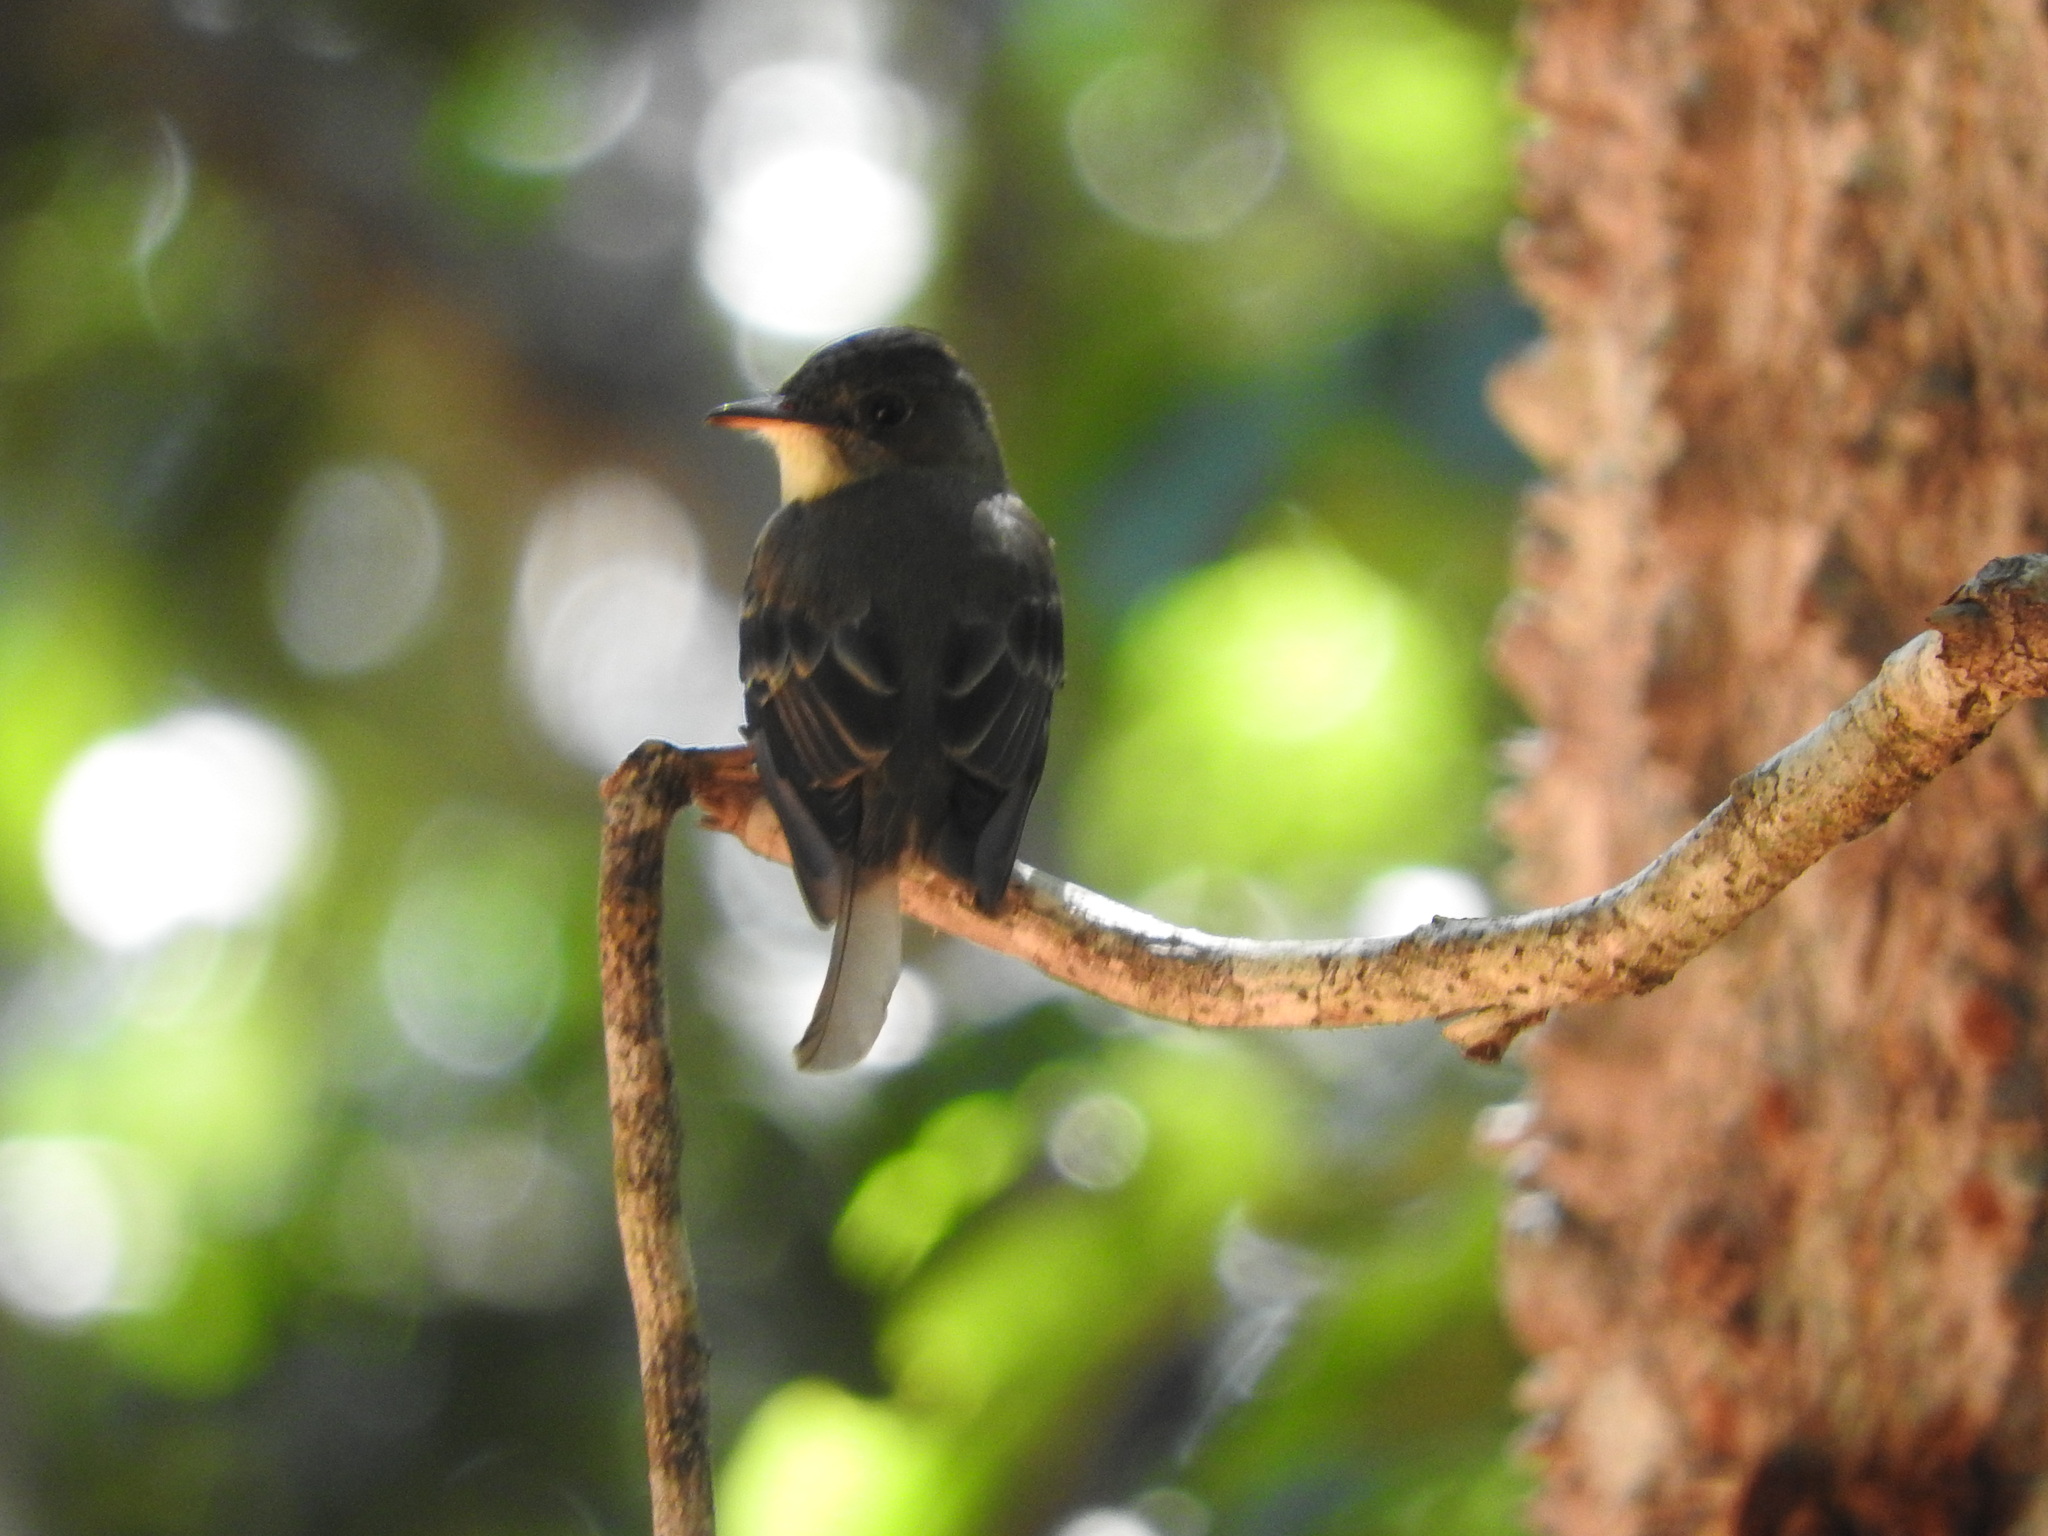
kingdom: Animalia
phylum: Chordata
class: Aves
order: Passeriformes
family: Tyrannidae
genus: Contopus
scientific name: Contopus virens
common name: Eastern wood-pewee
